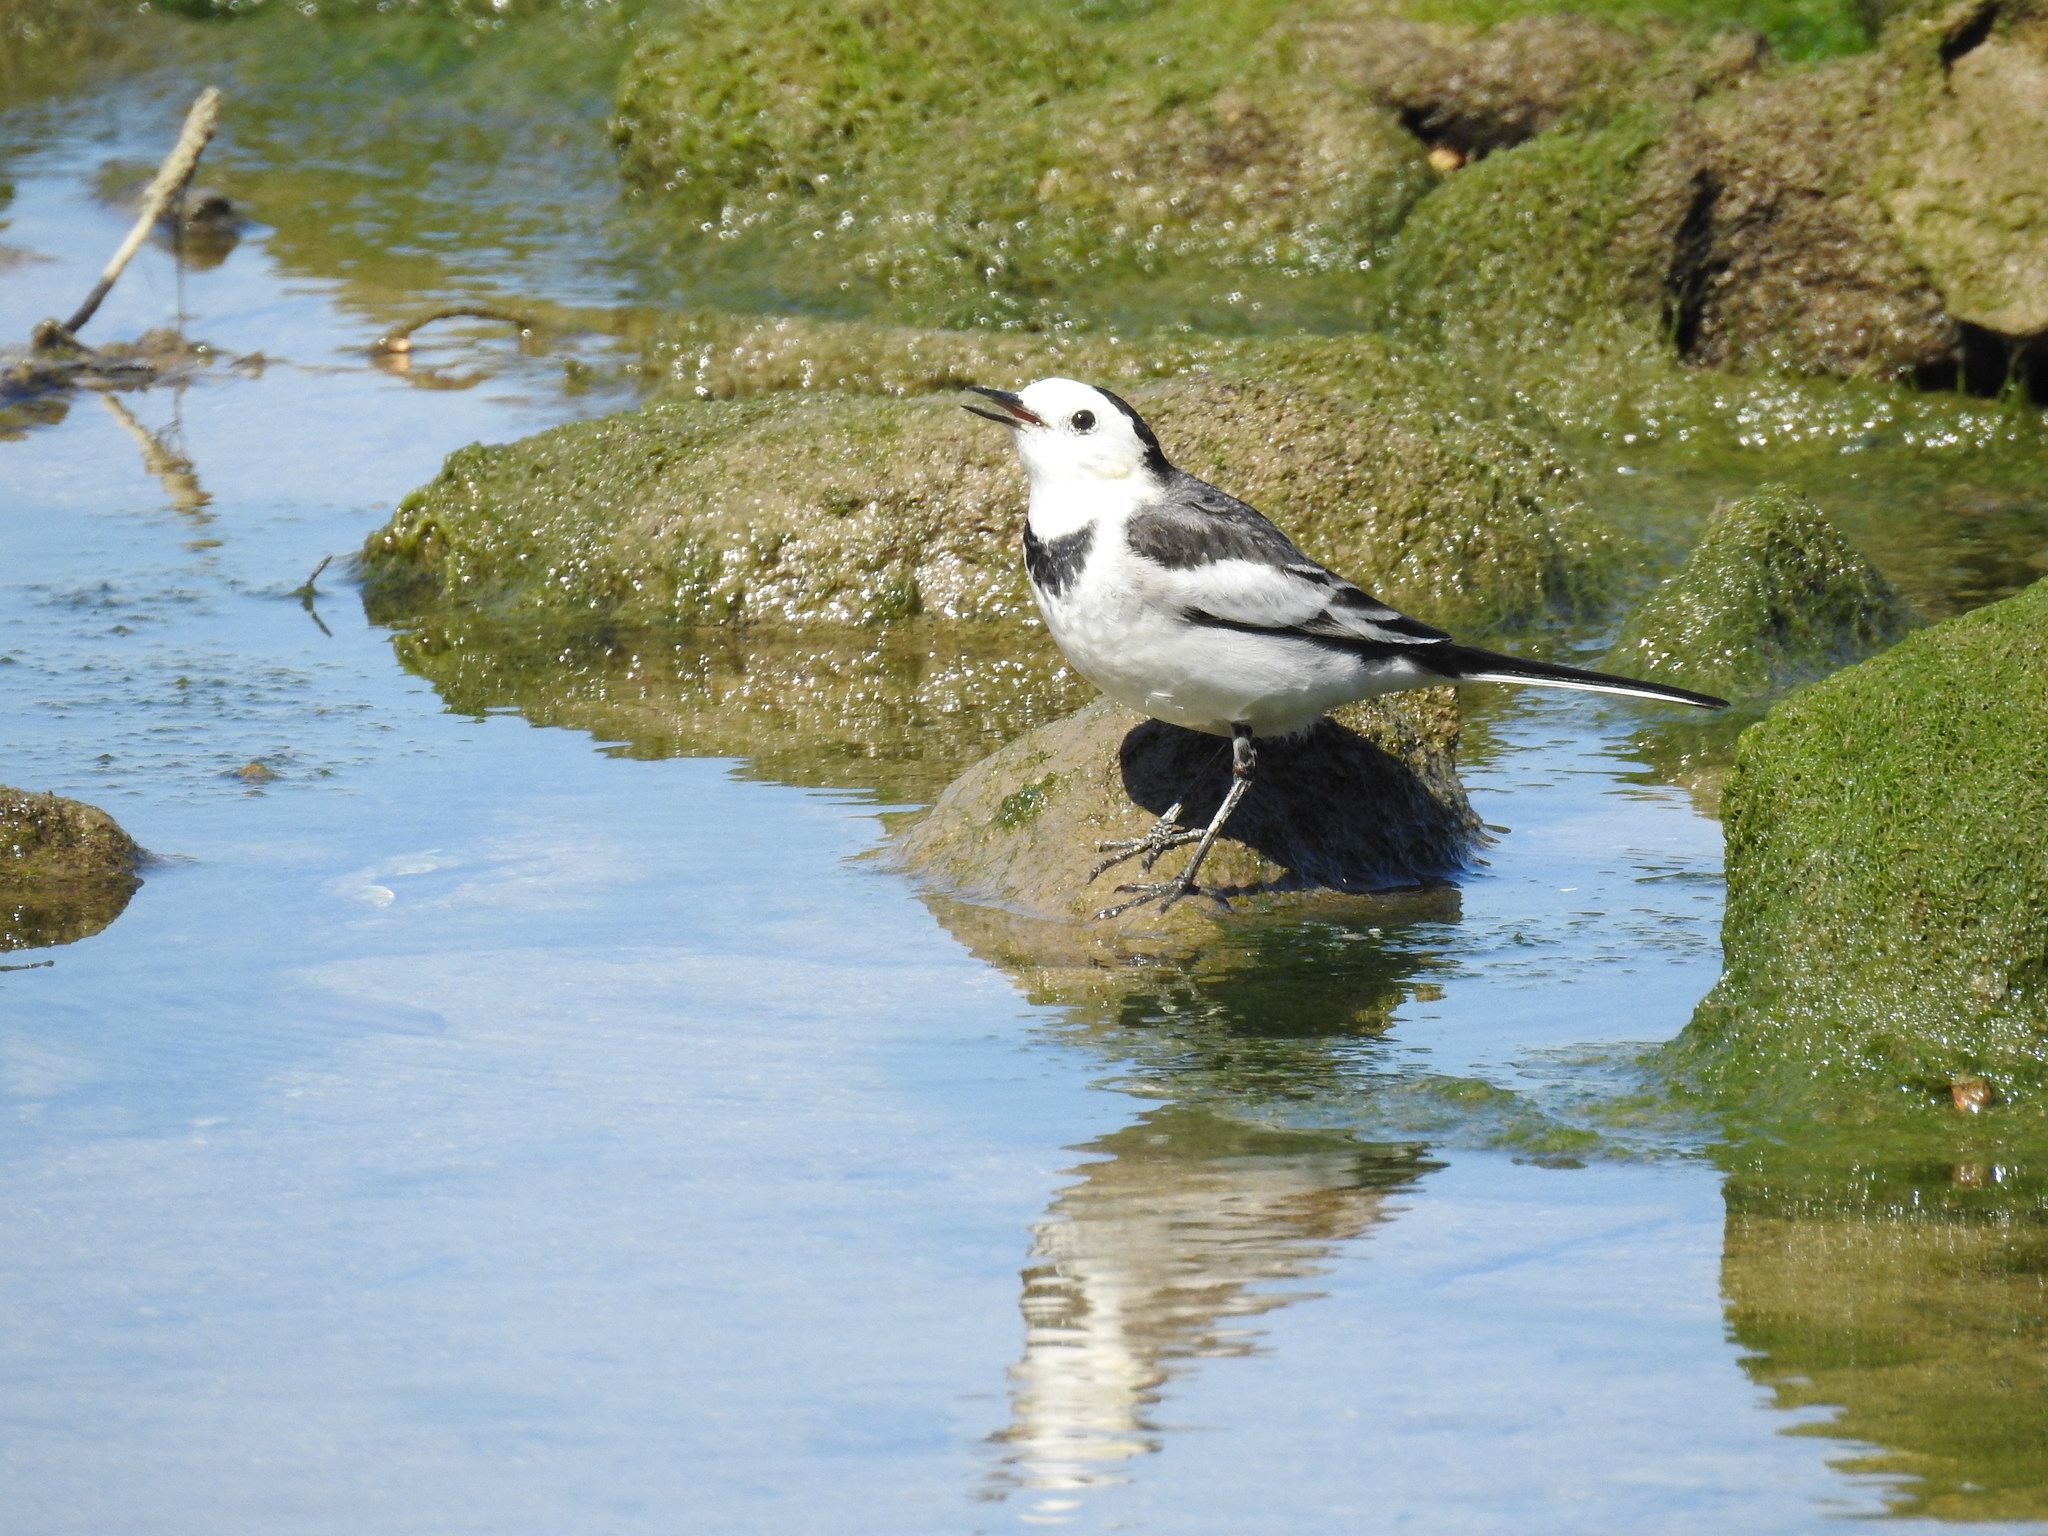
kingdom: Animalia
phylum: Chordata
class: Aves
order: Passeriformes
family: Motacillidae
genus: Motacilla
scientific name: Motacilla alba
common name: White wagtail
